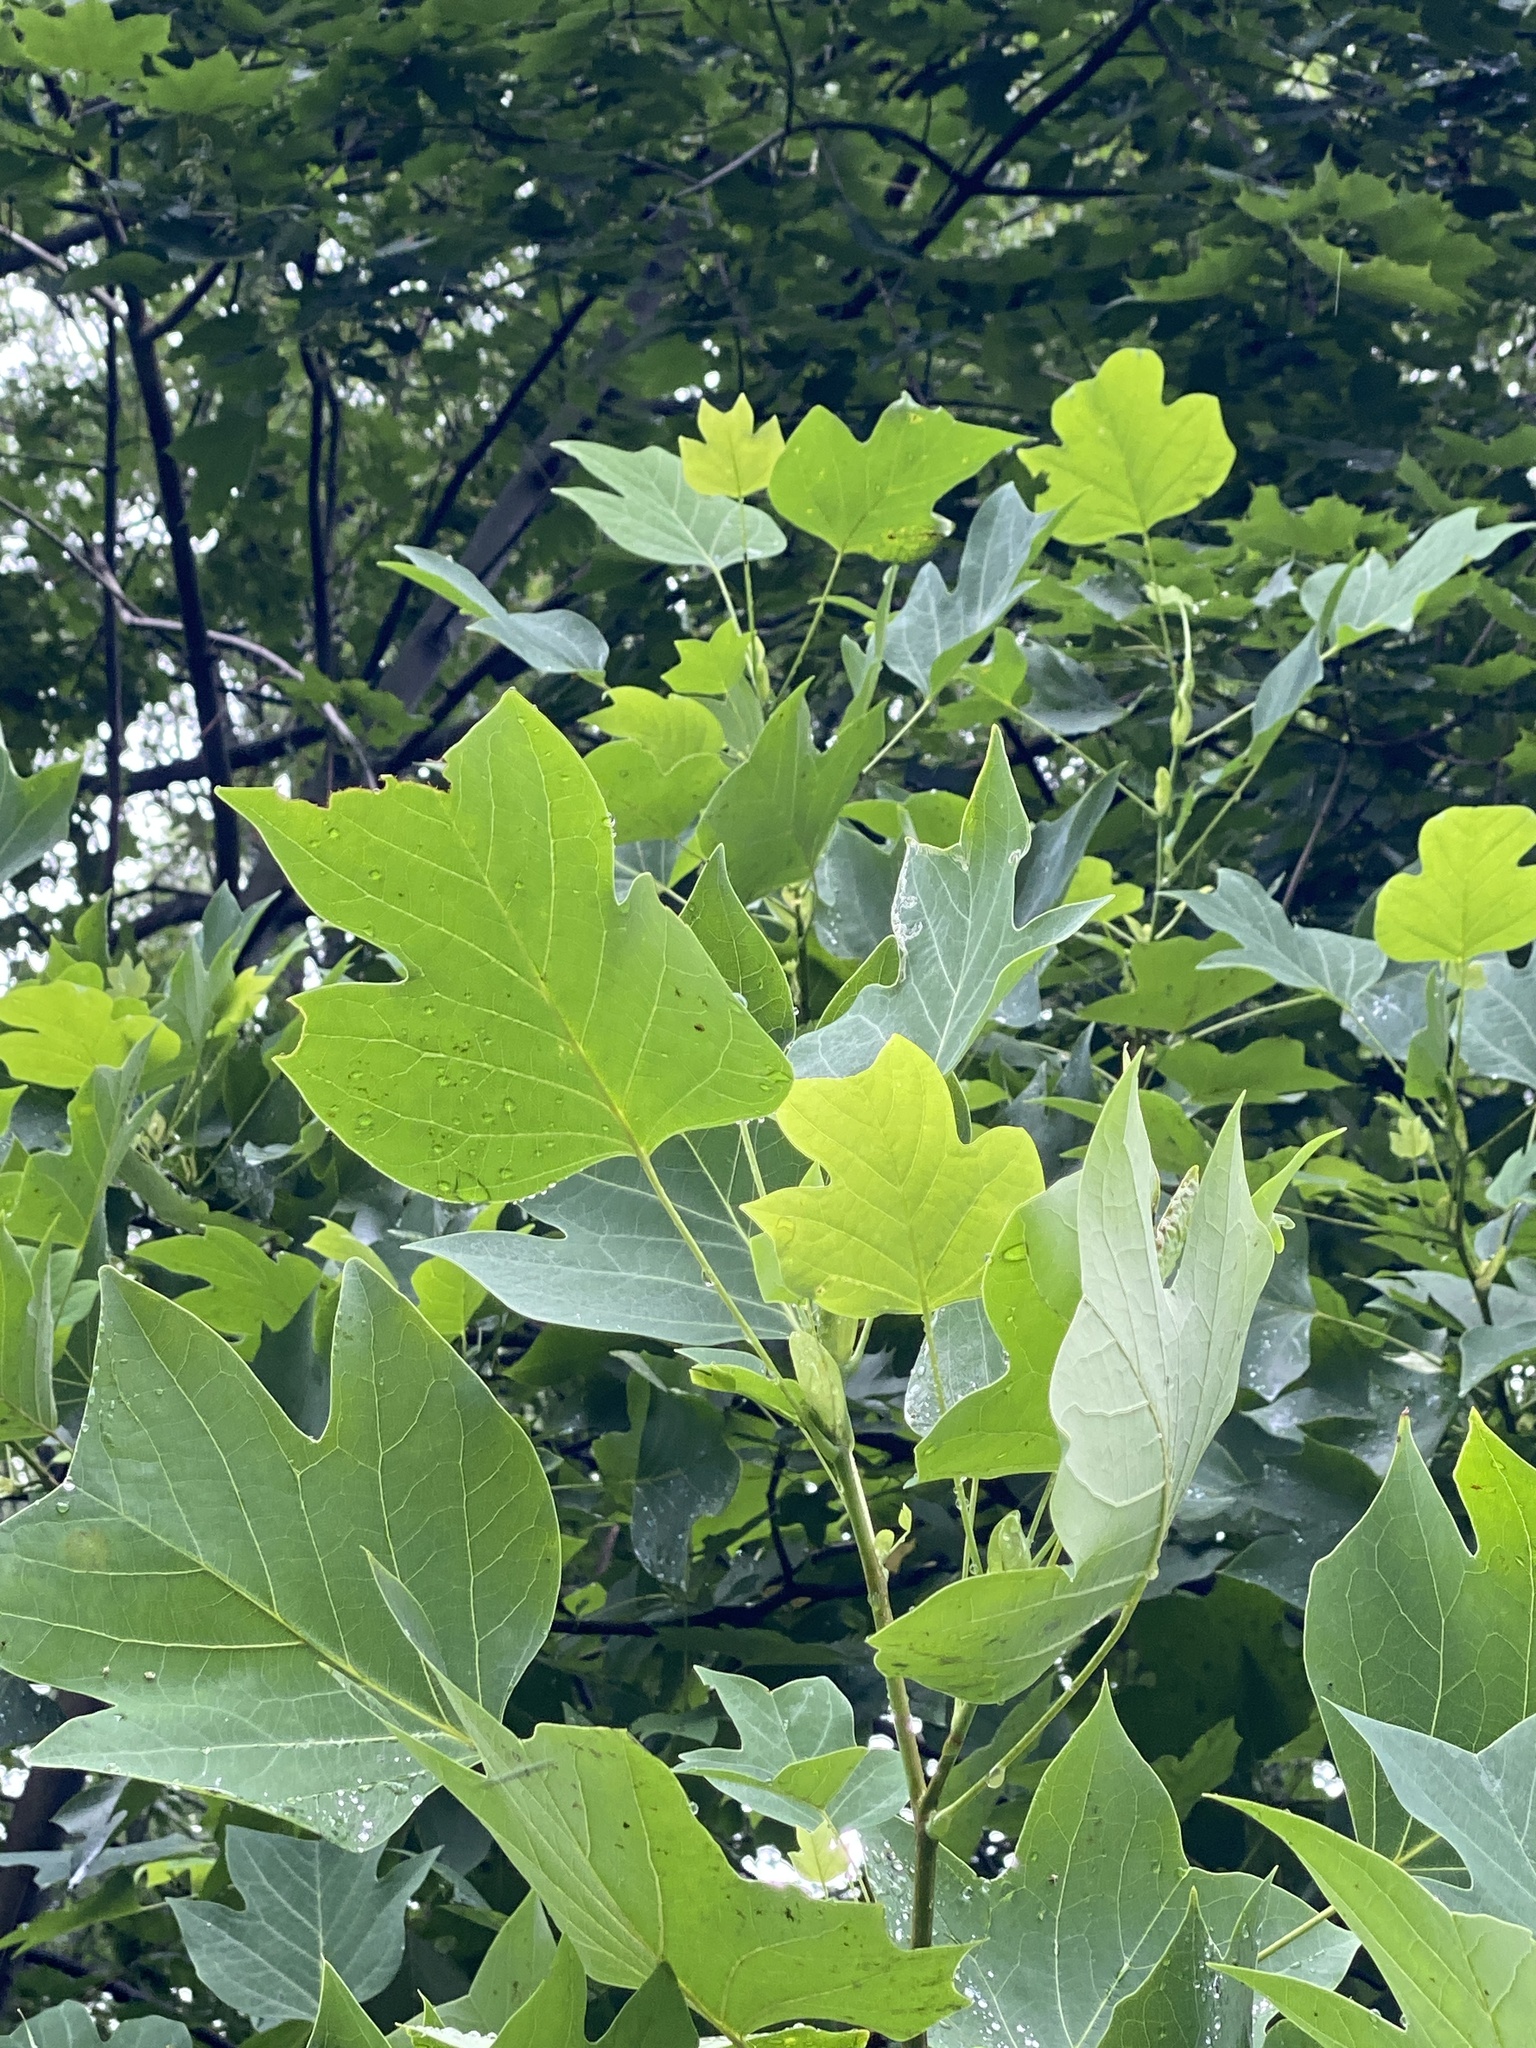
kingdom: Plantae
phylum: Tracheophyta
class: Magnoliopsida
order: Magnoliales
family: Magnoliaceae
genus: Liriodendron
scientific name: Liriodendron tulipifera
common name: Tulip tree
